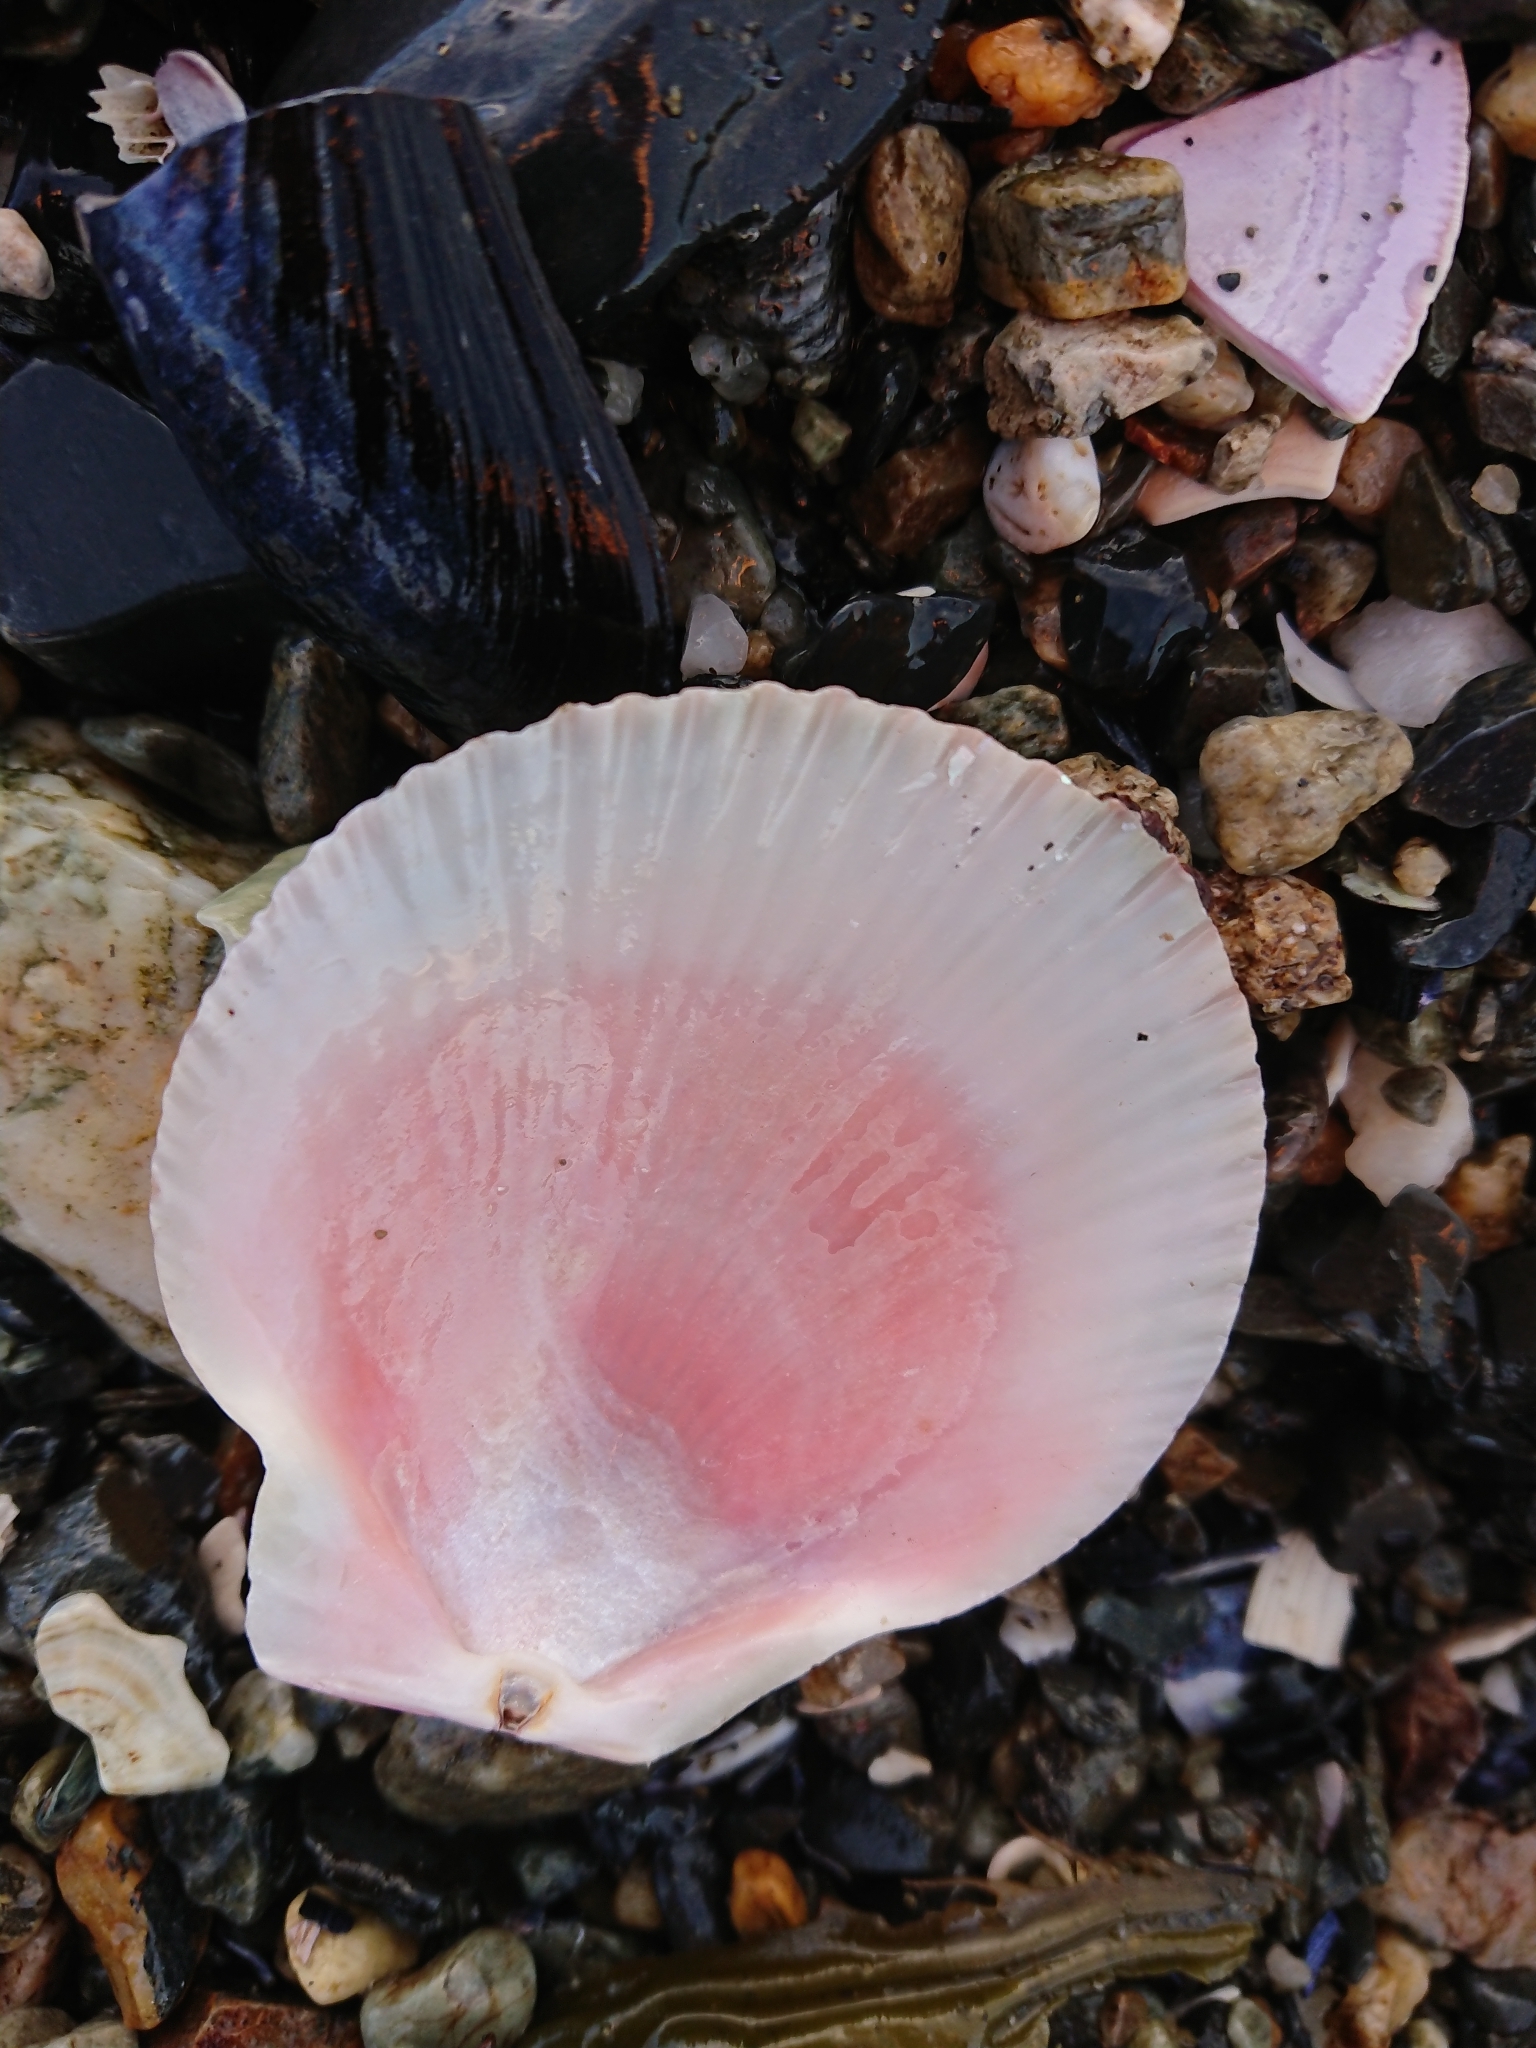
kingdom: Animalia
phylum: Mollusca
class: Bivalvia
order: Pectinida
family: Pectinidae
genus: Zygochlamys
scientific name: Zygochlamys patagonica
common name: Patagonian scallop
